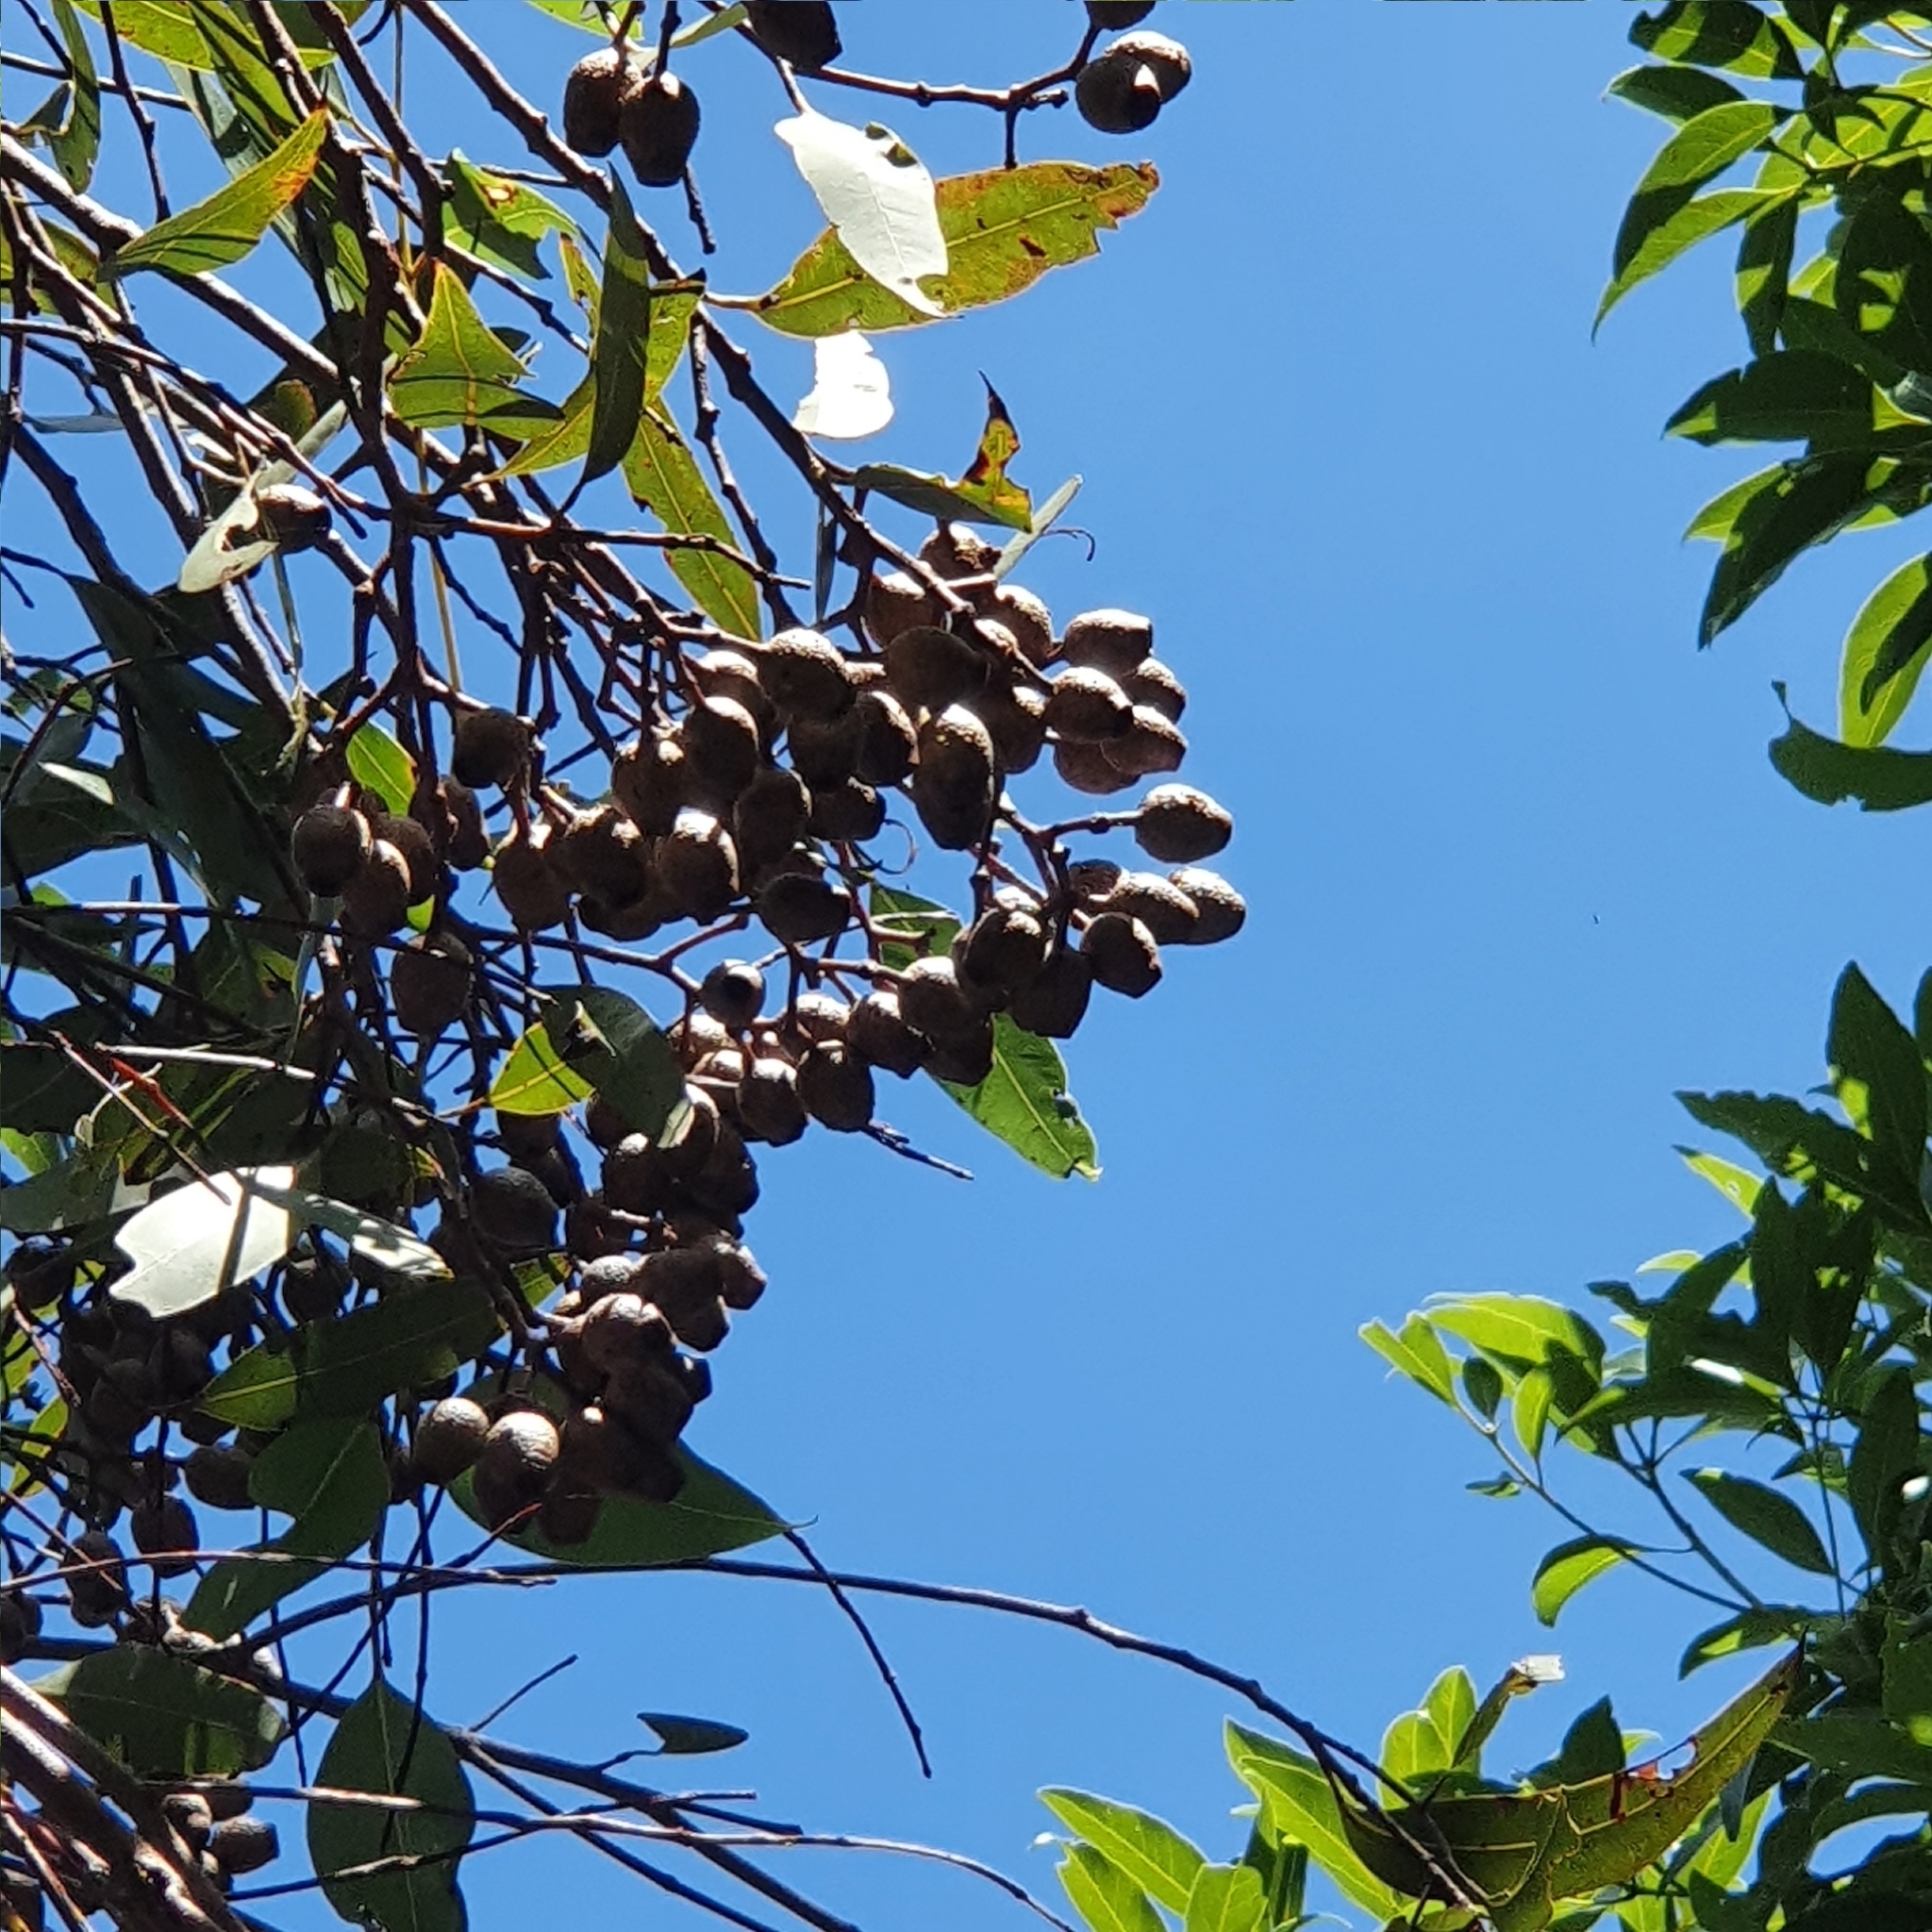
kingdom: Plantae
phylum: Tracheophyta
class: Magnoliopsida
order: Myrtales
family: Myrtaceae
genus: Corymbia
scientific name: Corymbia intermedia
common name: Pink-bloodwood
